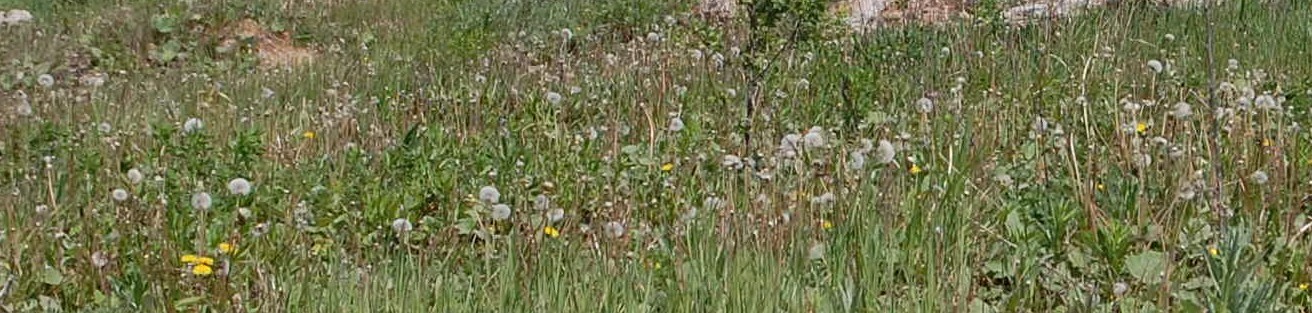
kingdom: Plantae
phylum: Tracheophyta
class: Magnoliopsida
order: Asterales
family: Asteraceae
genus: Taraxacum
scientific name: Taraxacum officinale
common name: Common dandelion
